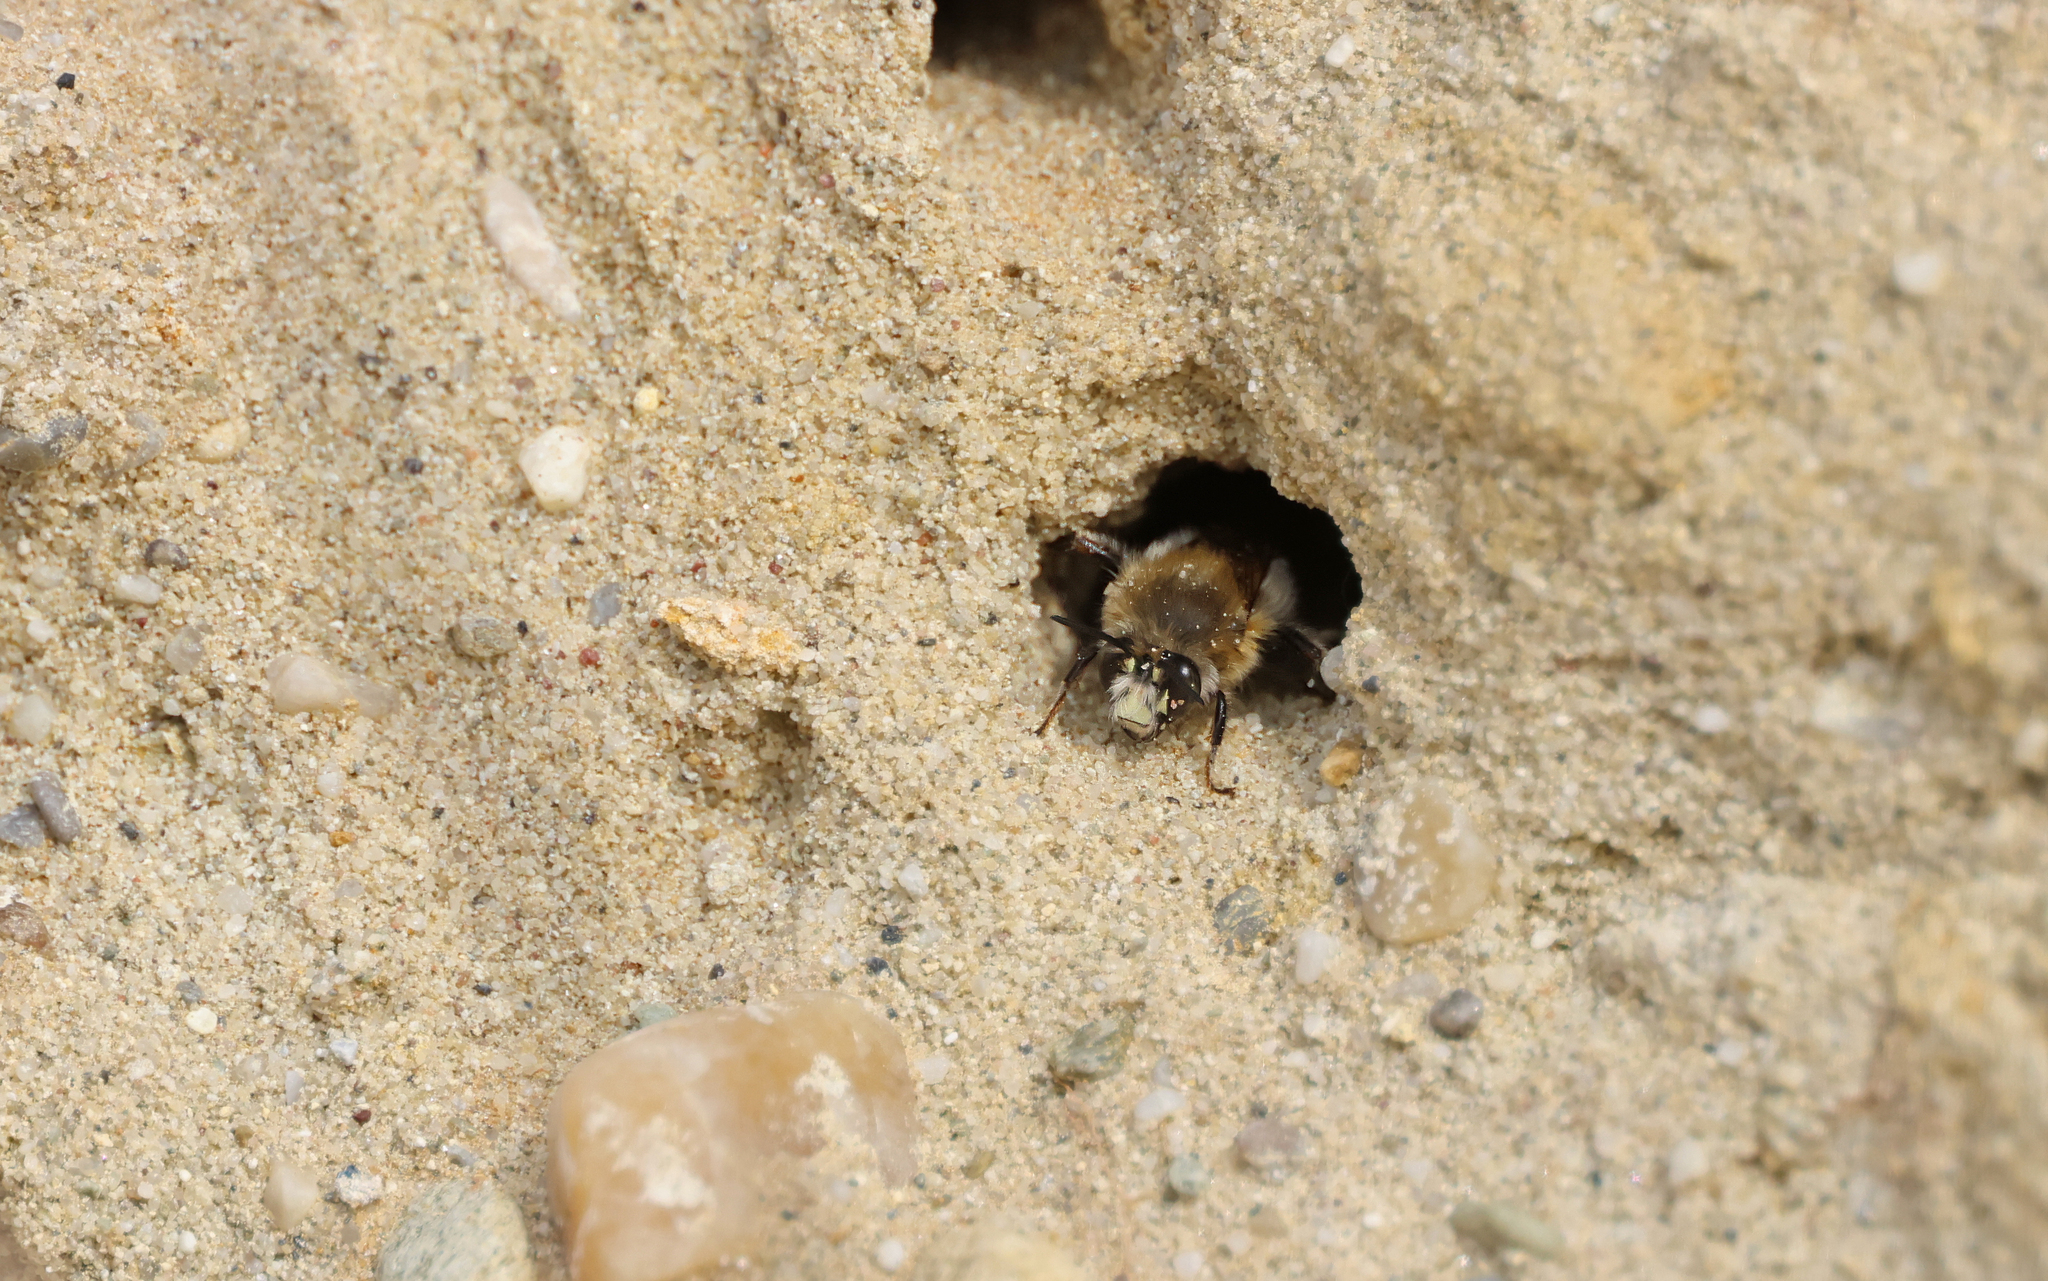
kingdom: Animalia
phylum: Arthropoda
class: Insecta
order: Hymenoptera
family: Apidae
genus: Anthophora
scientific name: Anthophora plumipes
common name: Hairy-footed flower bee
